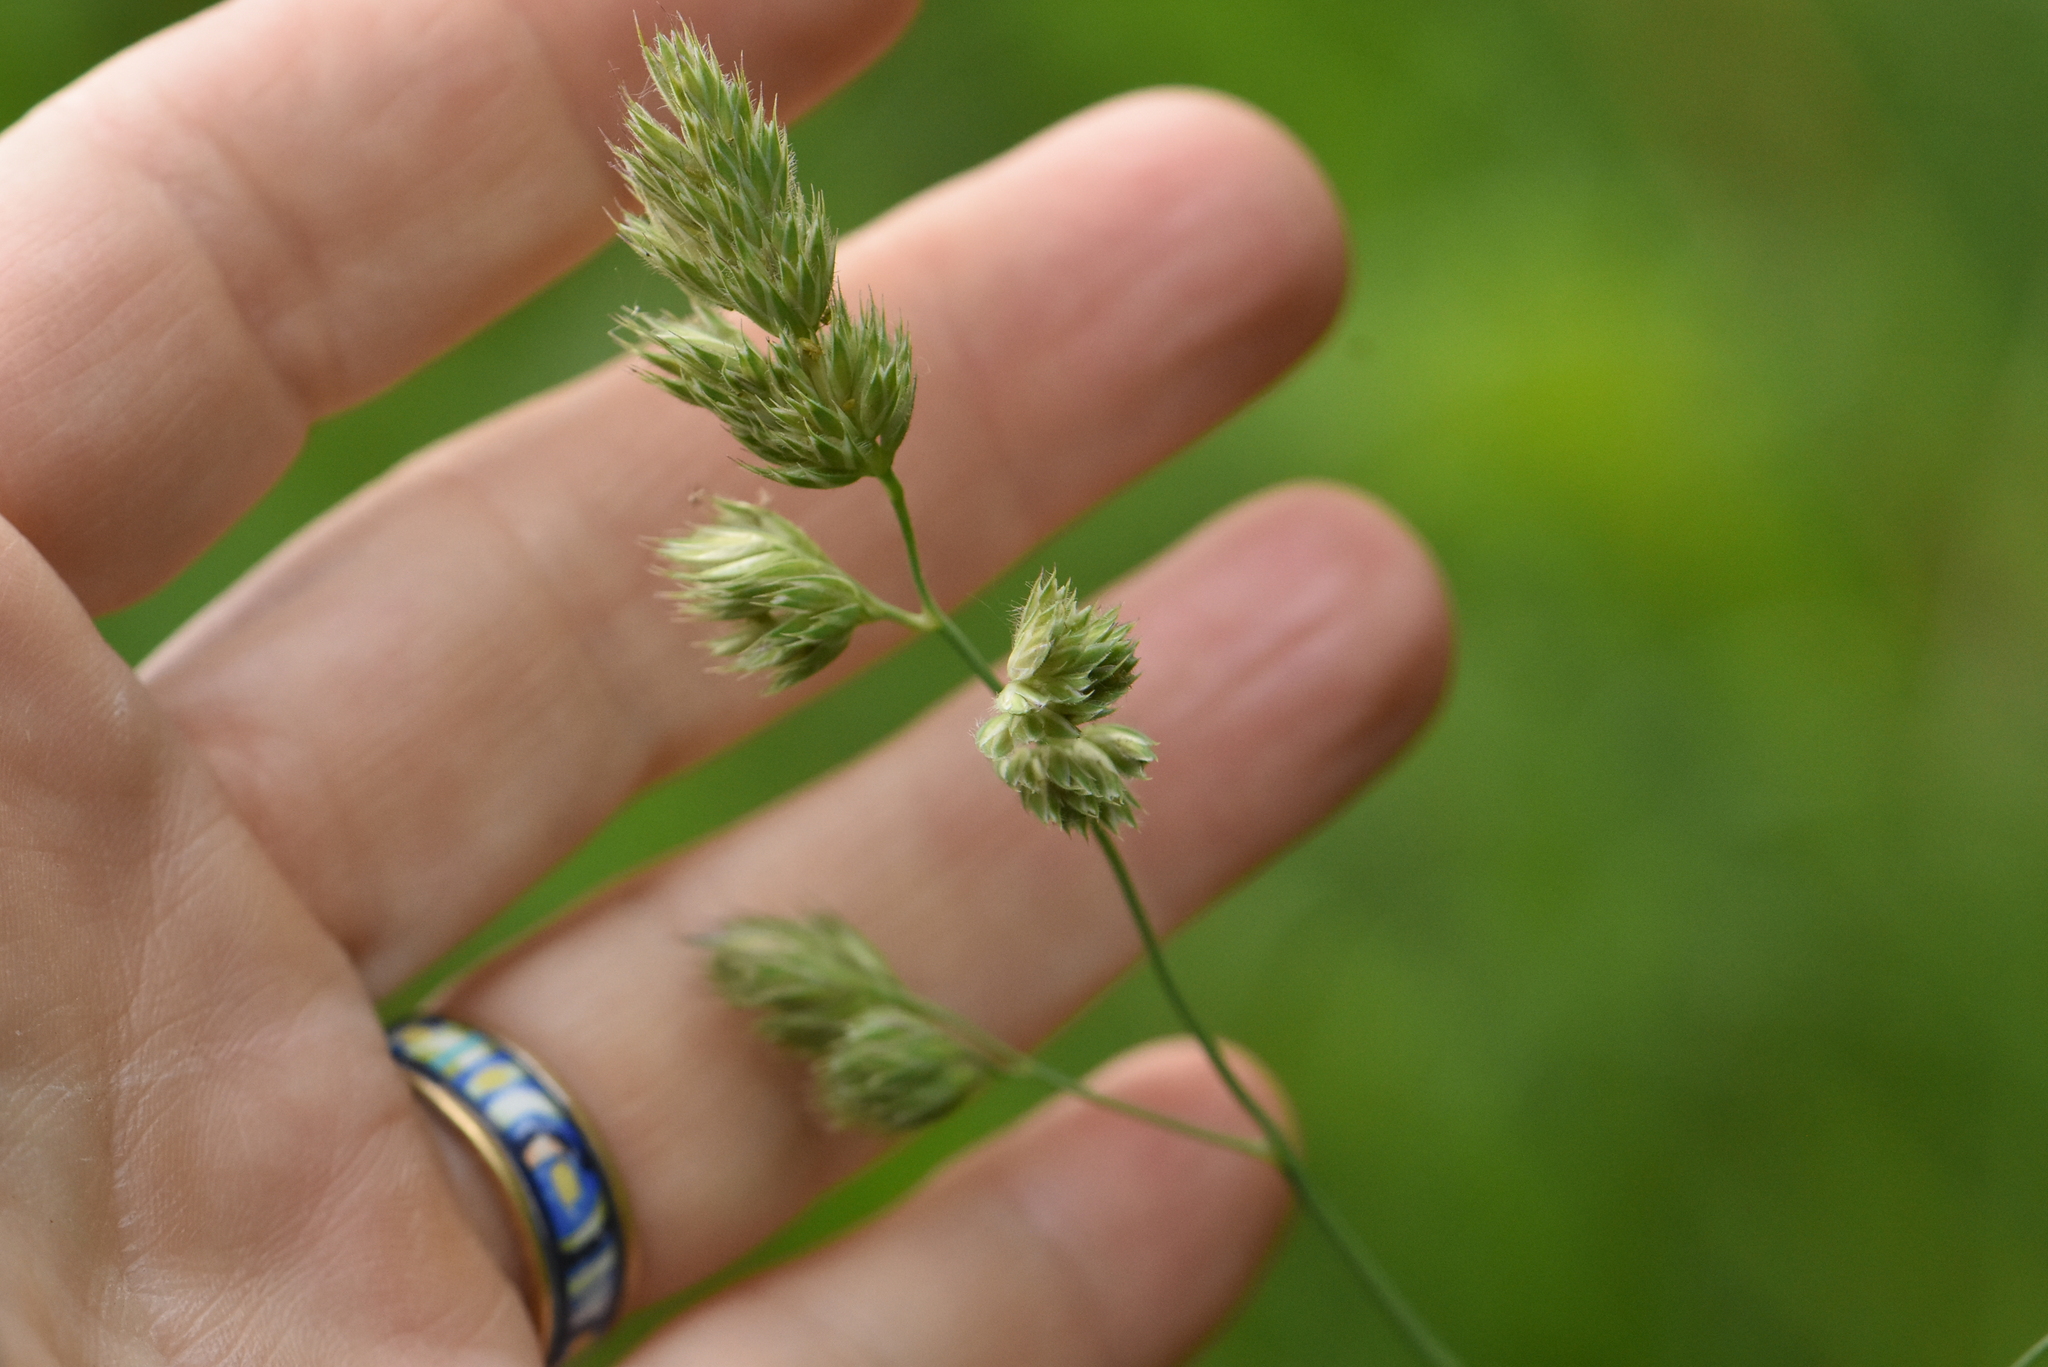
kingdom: Plantae
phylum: Tracheophyta
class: Liliopsida
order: Poales
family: Poaceae
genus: Dactylis
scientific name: Dactylis glomerata
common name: Orchardgrass
